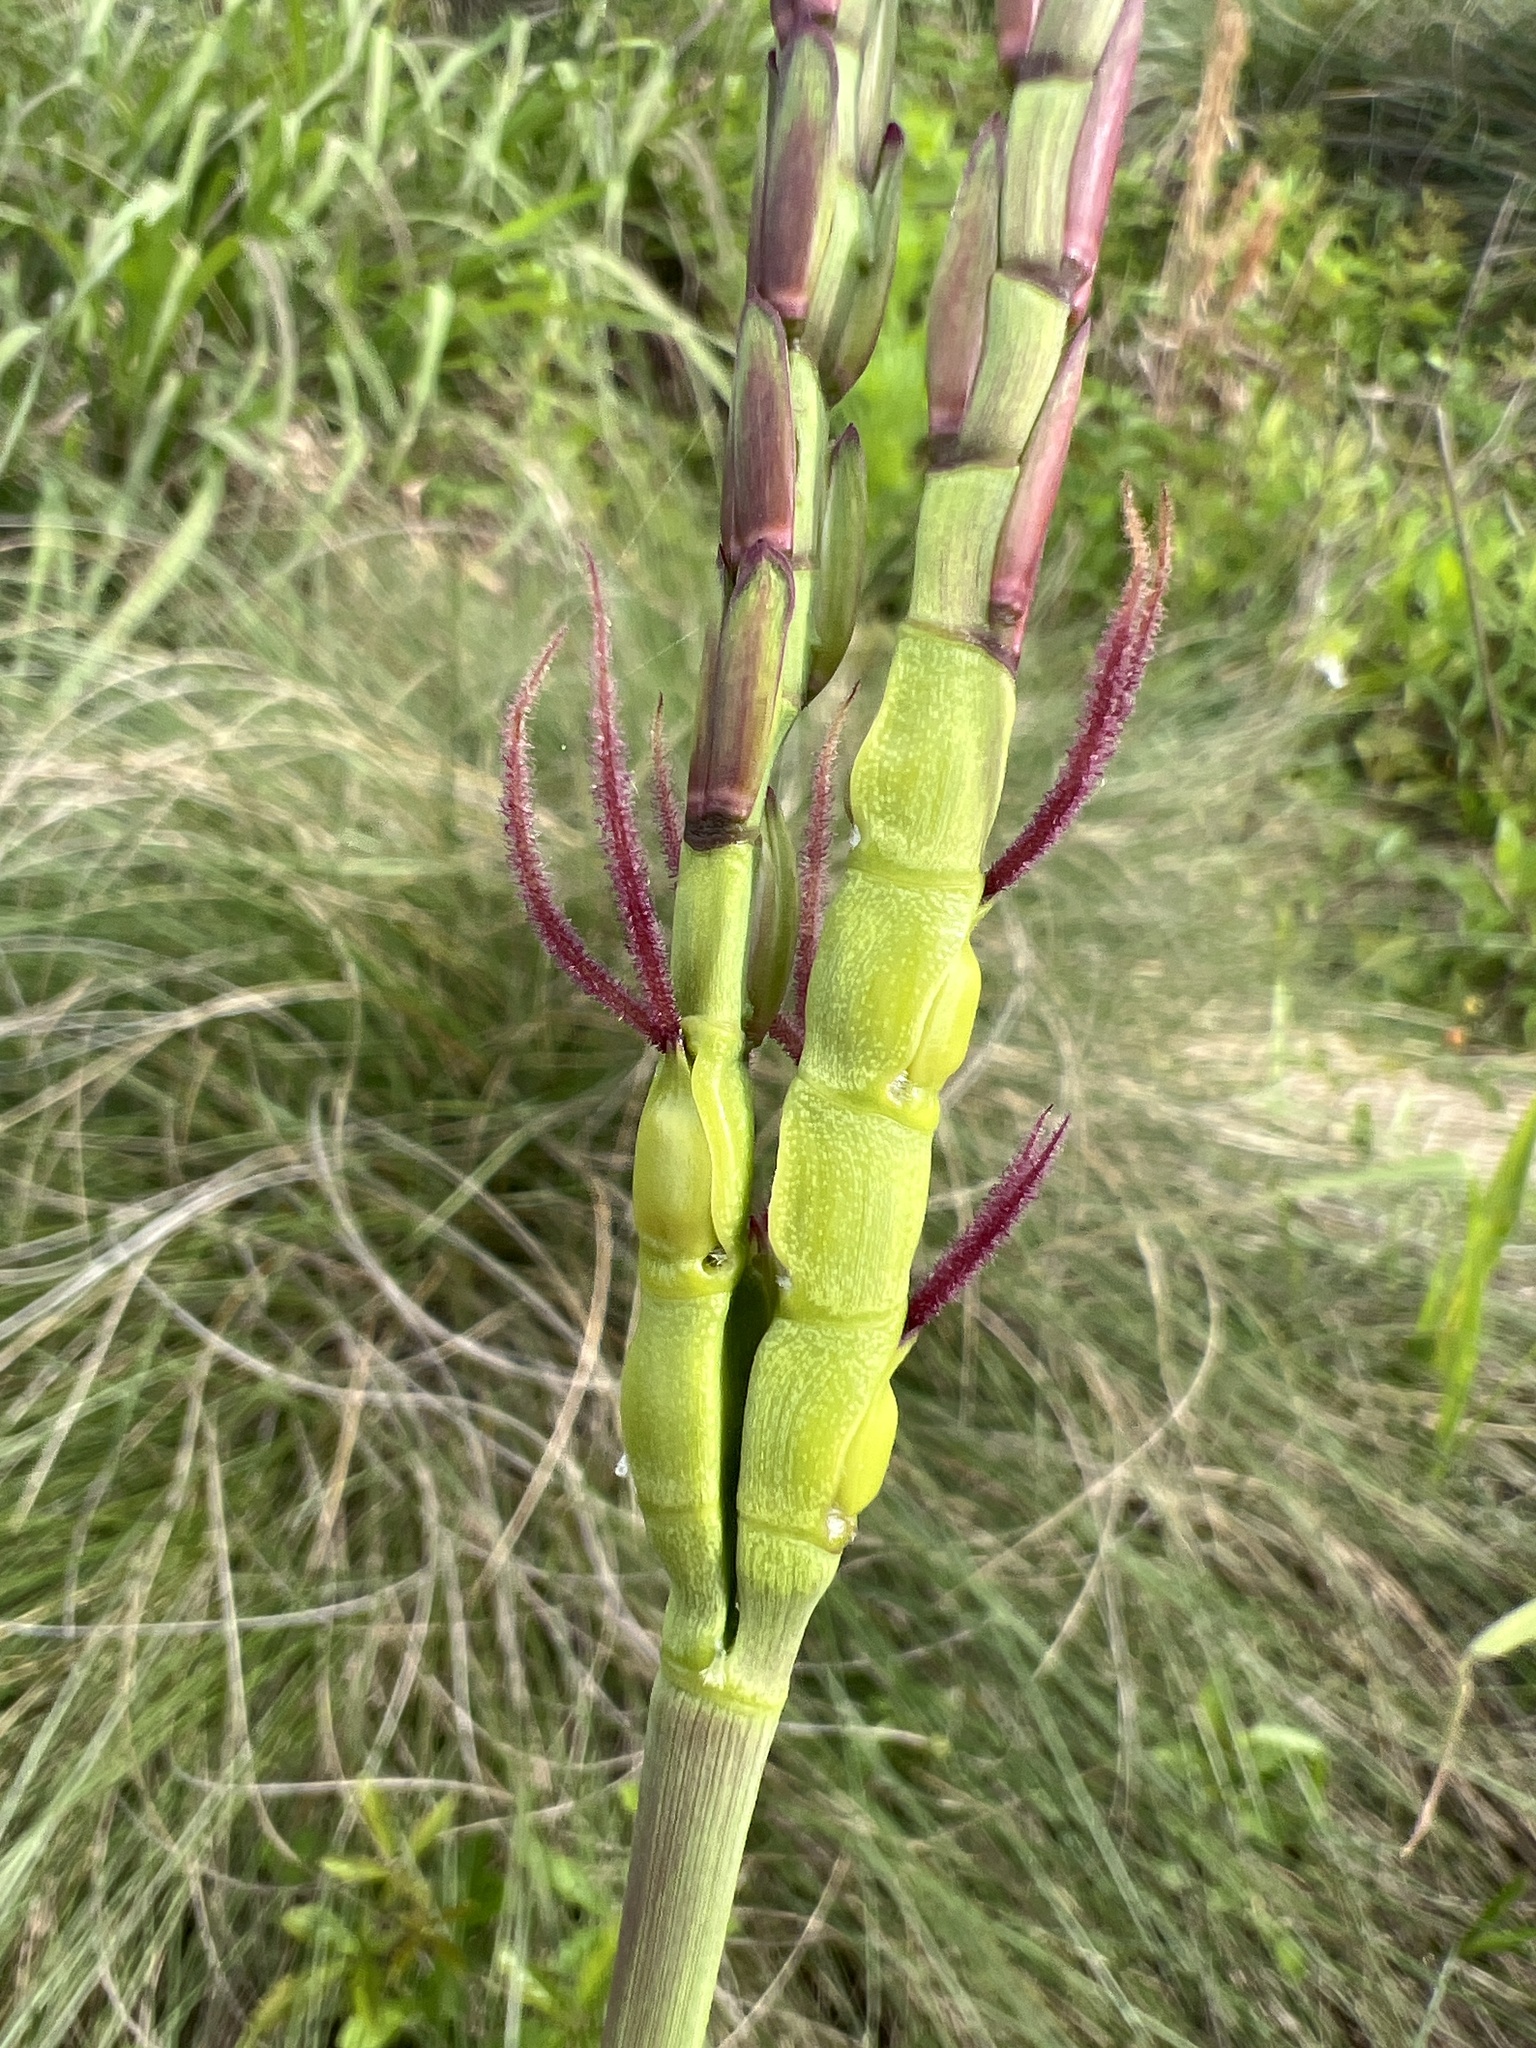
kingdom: Plantae
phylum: Tracheophyta
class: Liliopsida
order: Poales
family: Poaceae
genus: Tripsacum
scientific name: Tripsacum dactyloides
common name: Buffalo-grass
